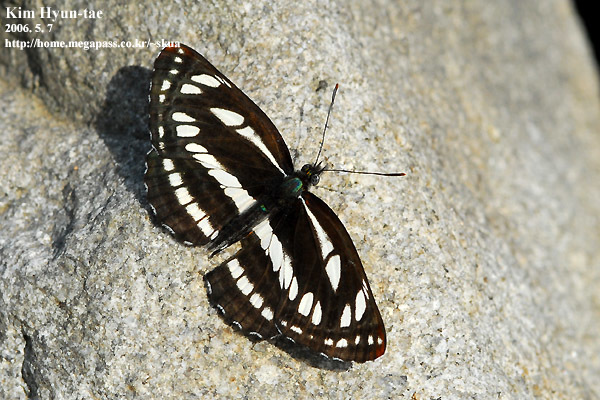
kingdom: Animalia
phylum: Arthropoda
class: Insecta
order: Lepidoptera
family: Nymphalidae
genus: Neptis
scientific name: Neptis sappho
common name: Common glider
